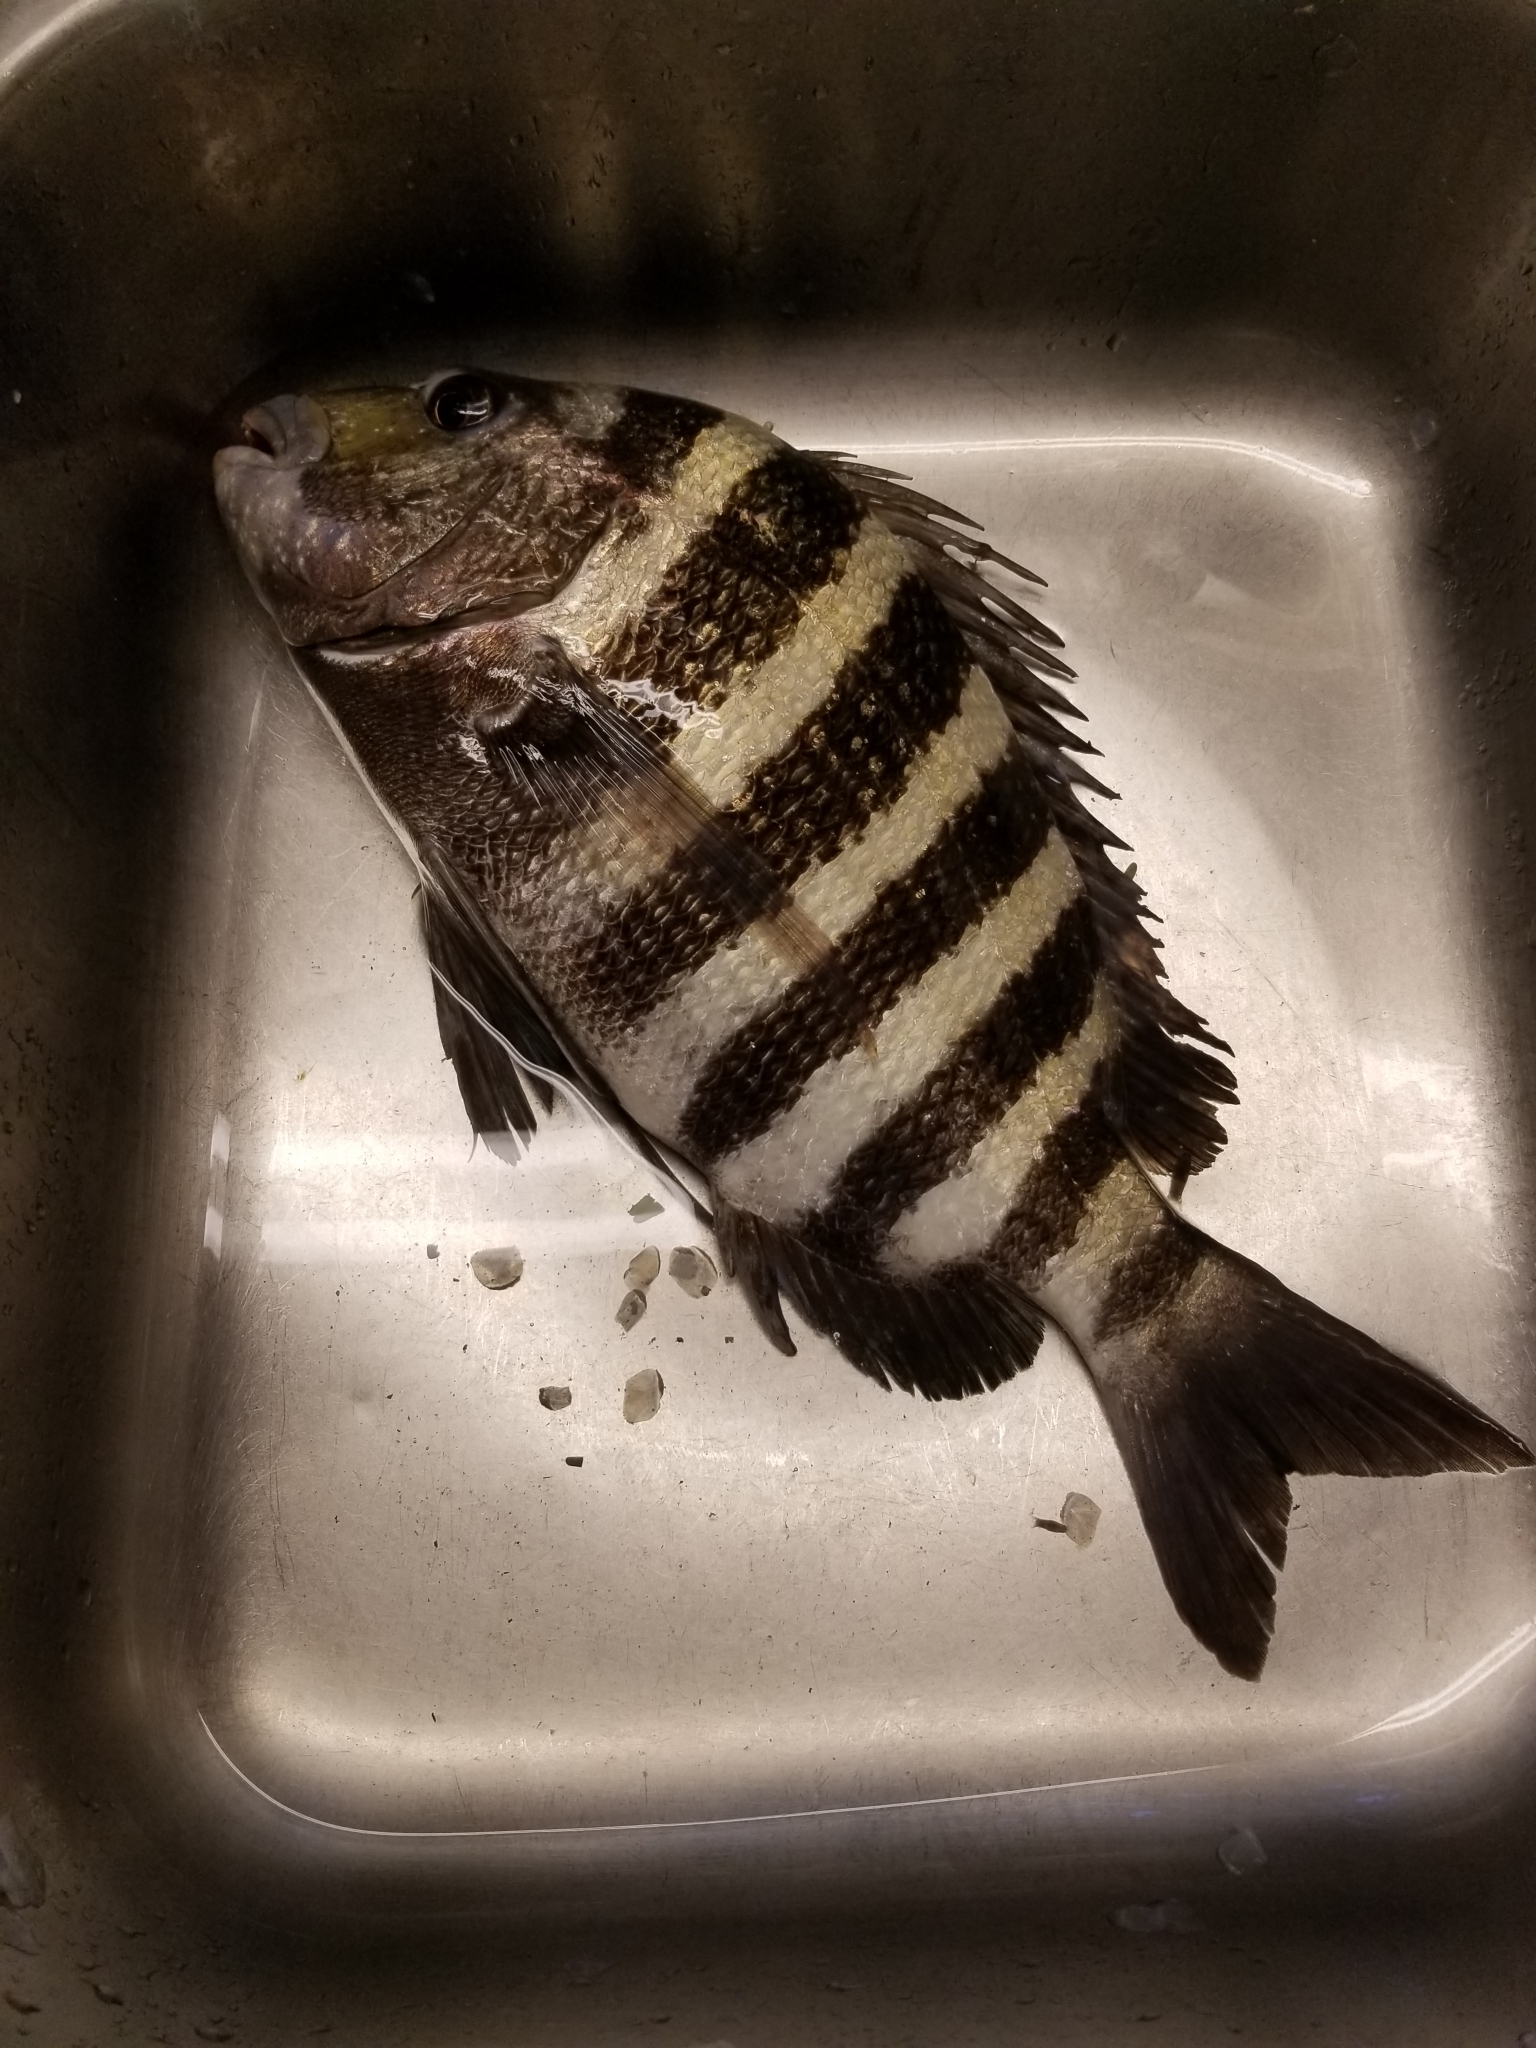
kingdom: Animalia
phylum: Chordata
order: Perciformes
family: Sparidae
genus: Archosargus
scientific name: Archosargus probatocephalus
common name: Sheepshead
